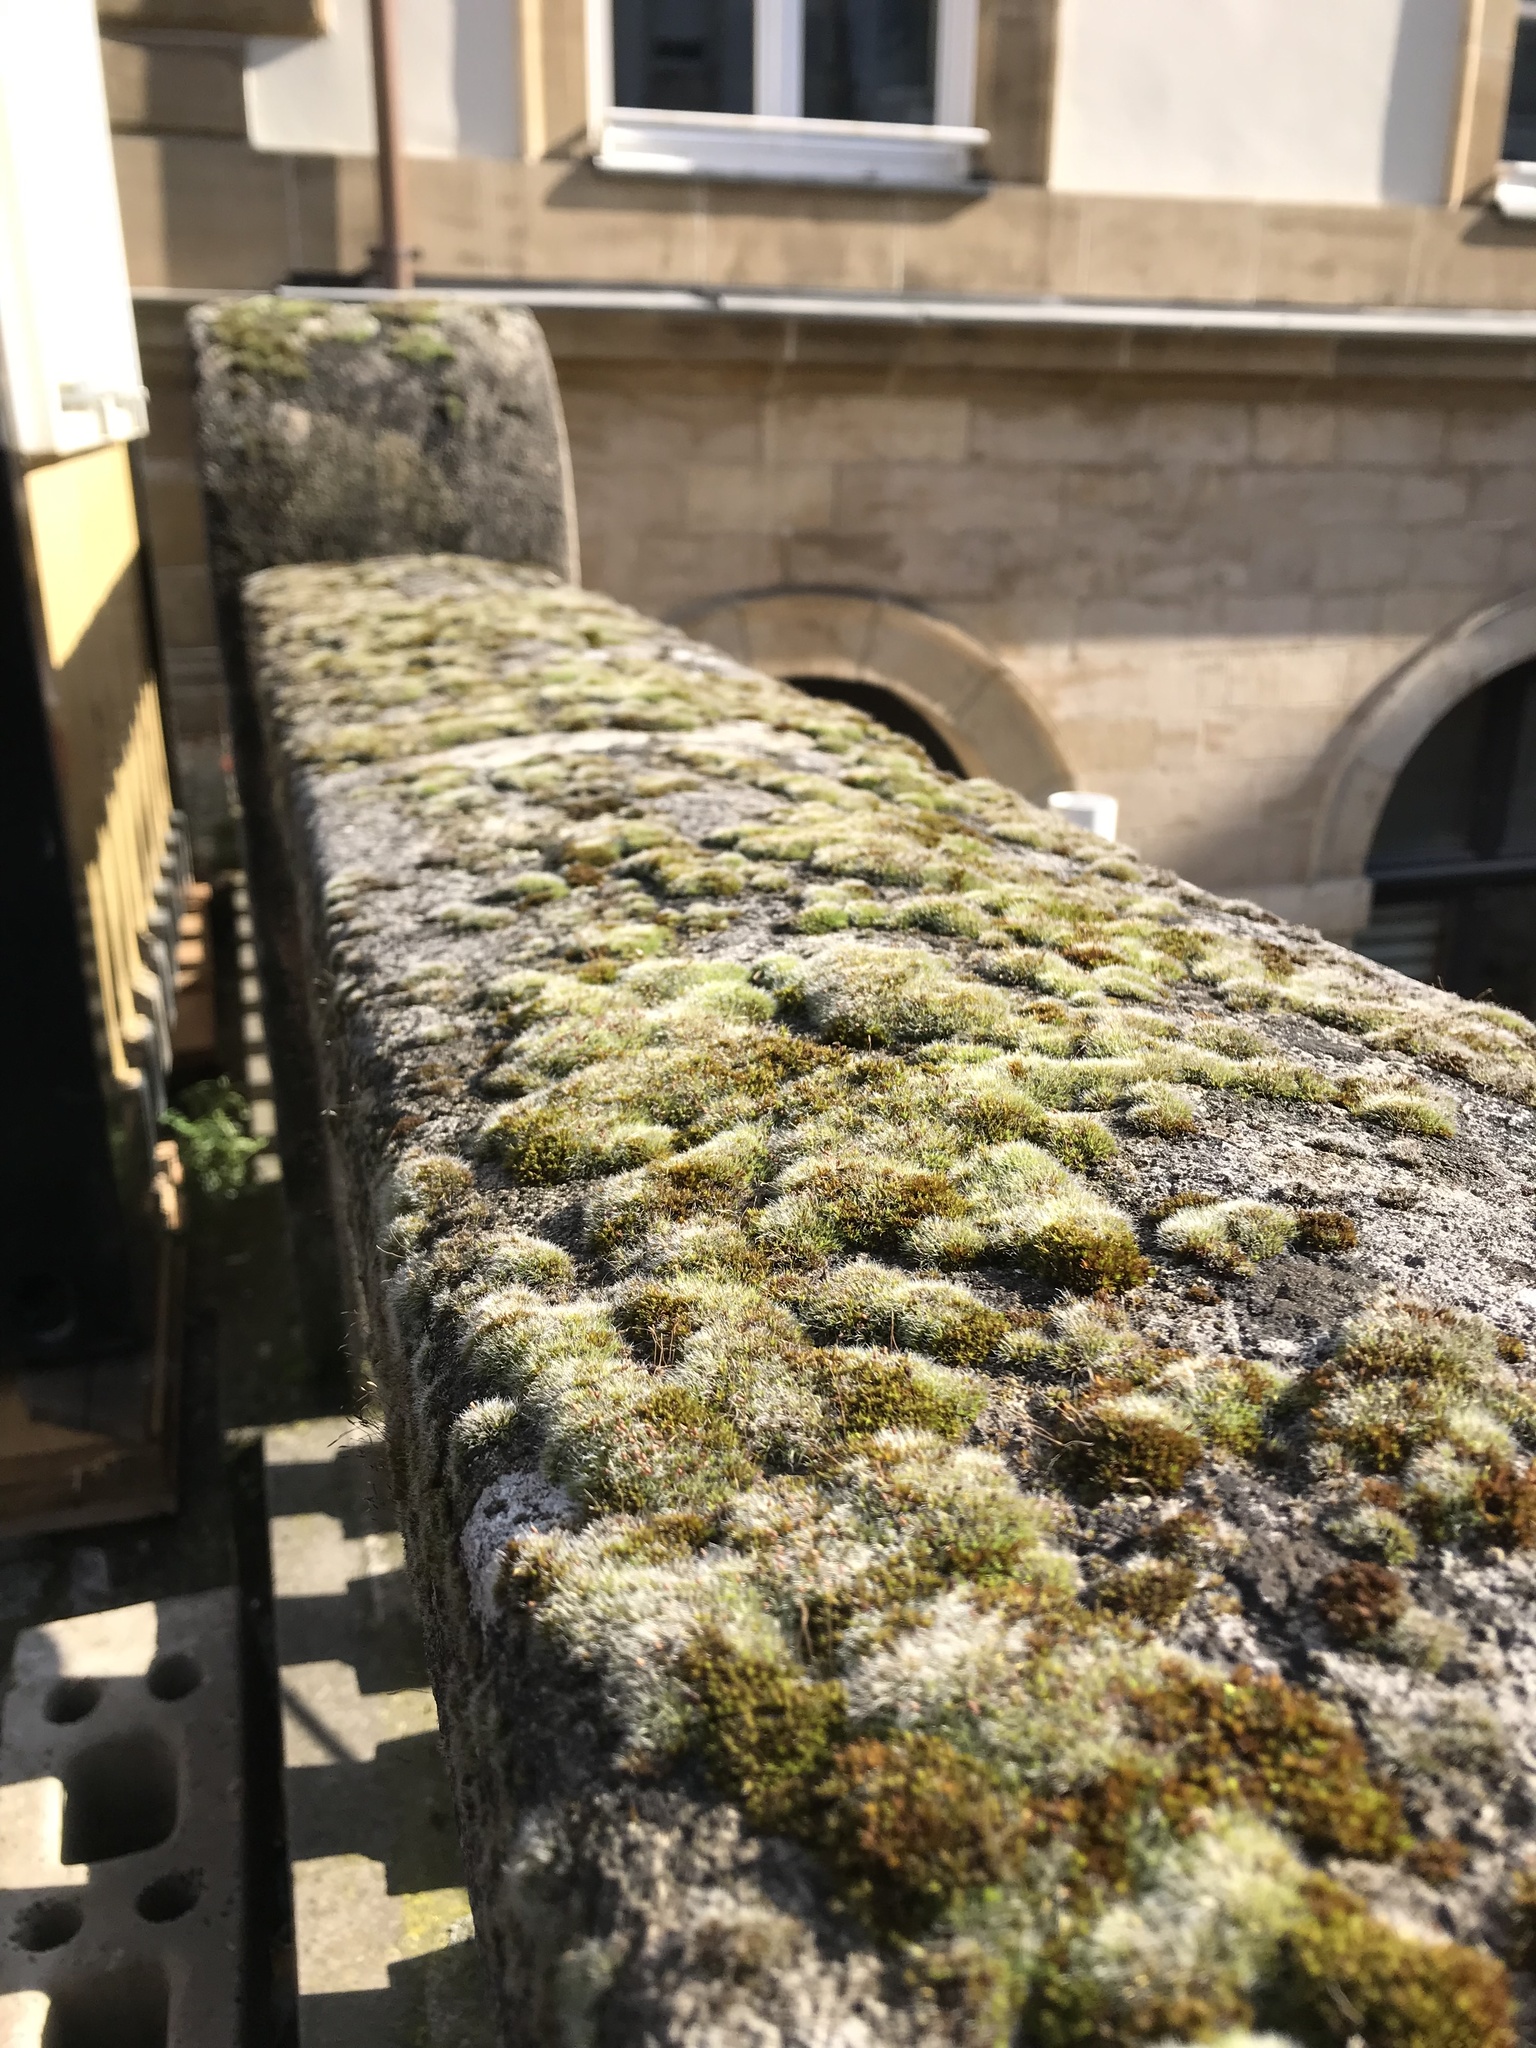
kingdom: Plantae
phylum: Bryophyta
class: Bryopsida
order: Grimmiales
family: Grimmiaceae
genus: Grimmia
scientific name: Grimmia pulvinata
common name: Grey-cushioned grimmia
